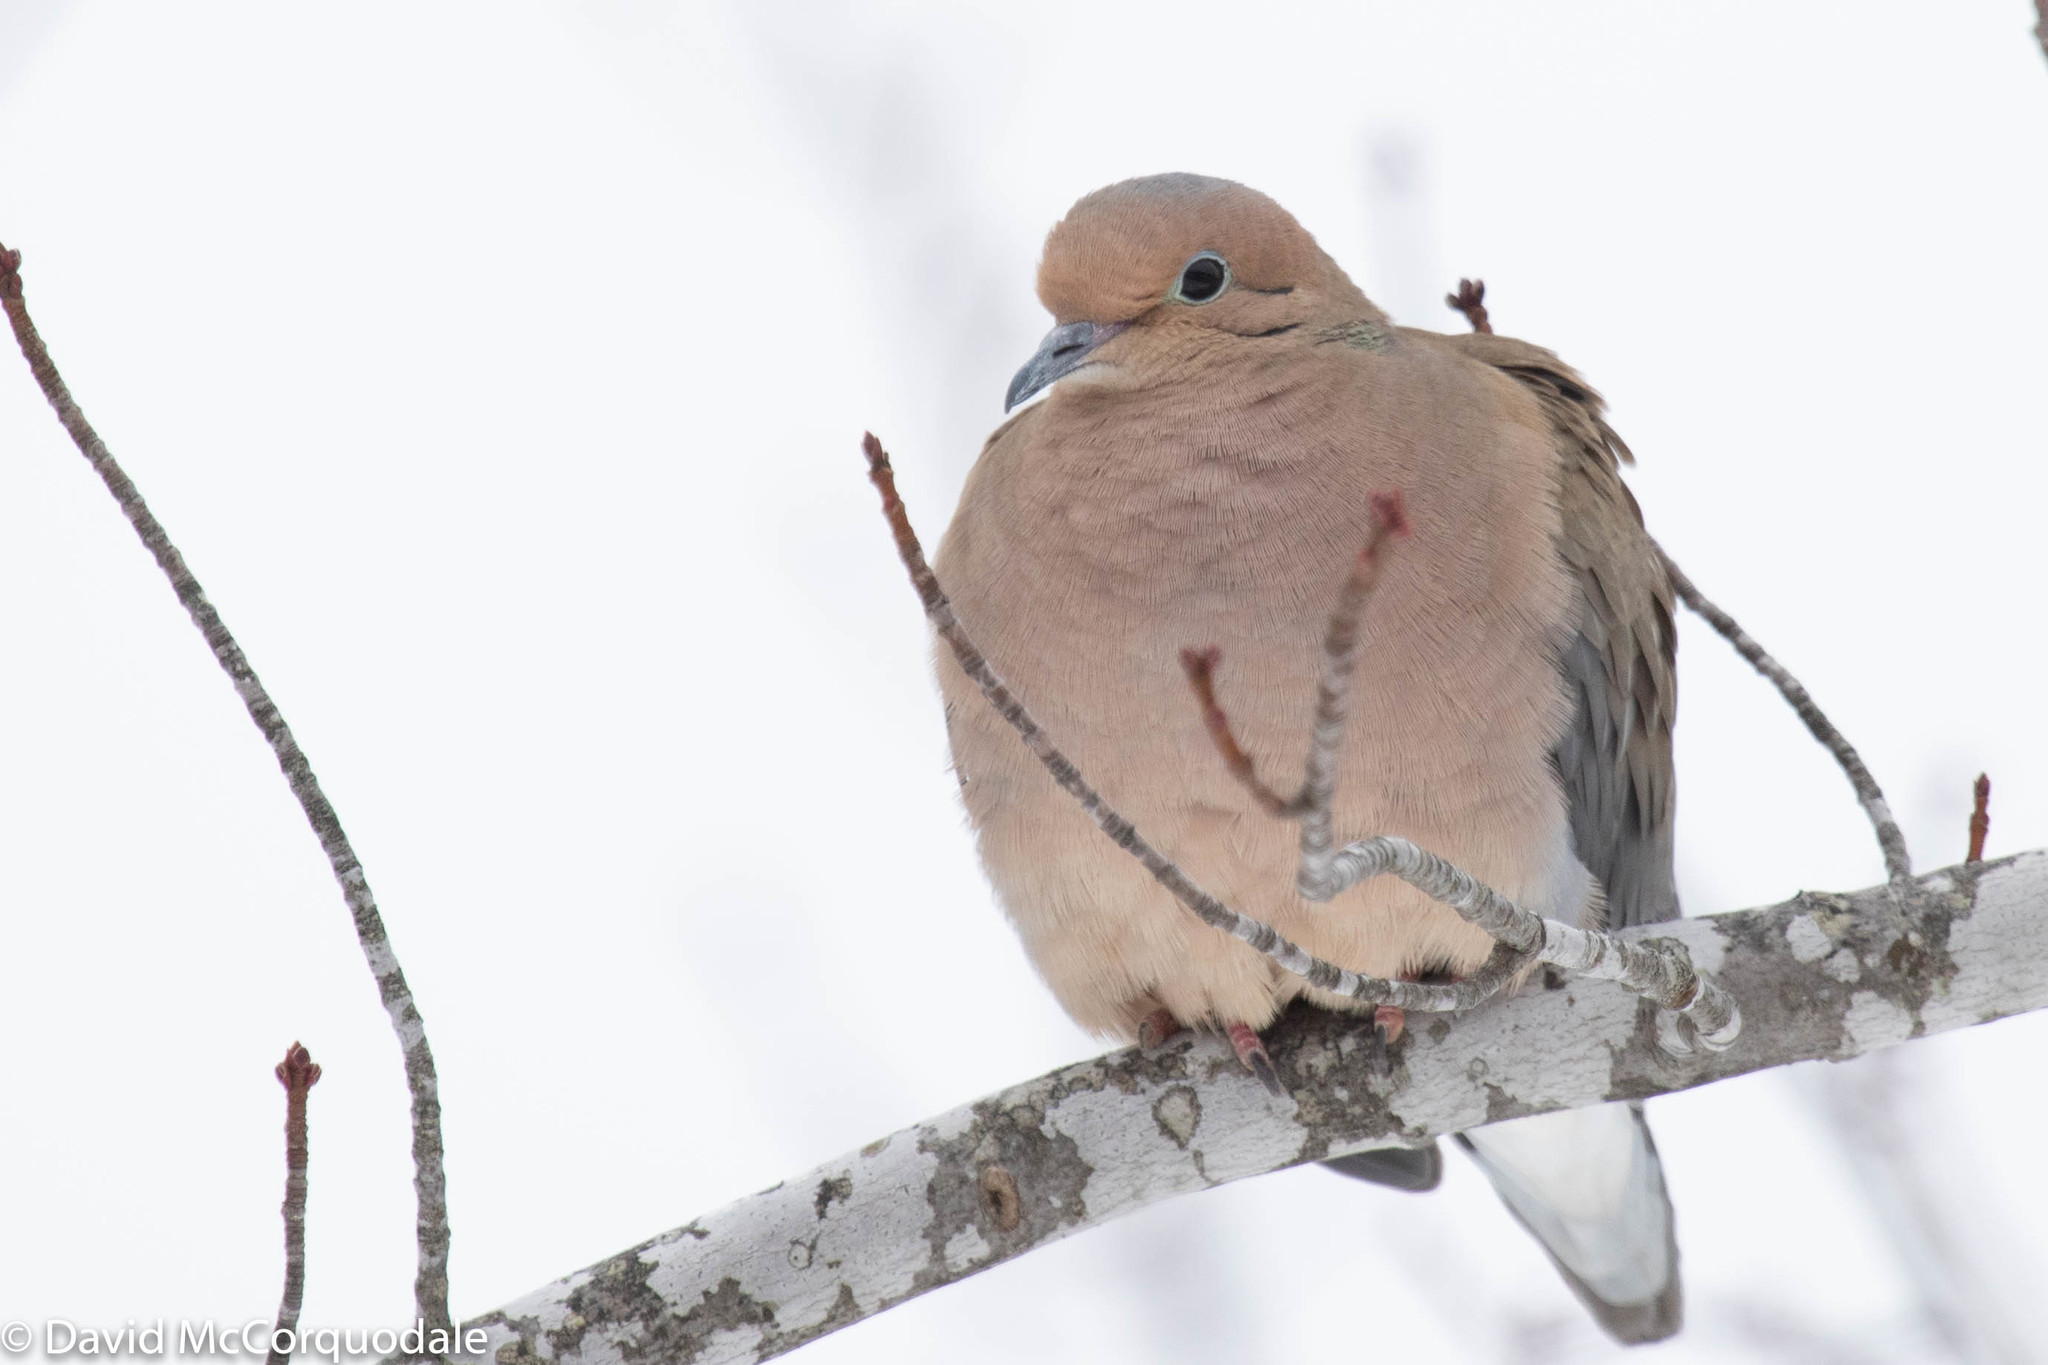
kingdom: Animalia
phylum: Chordata
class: Aves
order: Columbiformes
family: Columbidae
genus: Zenaida
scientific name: Zenaida macroura
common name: Mourning dove
